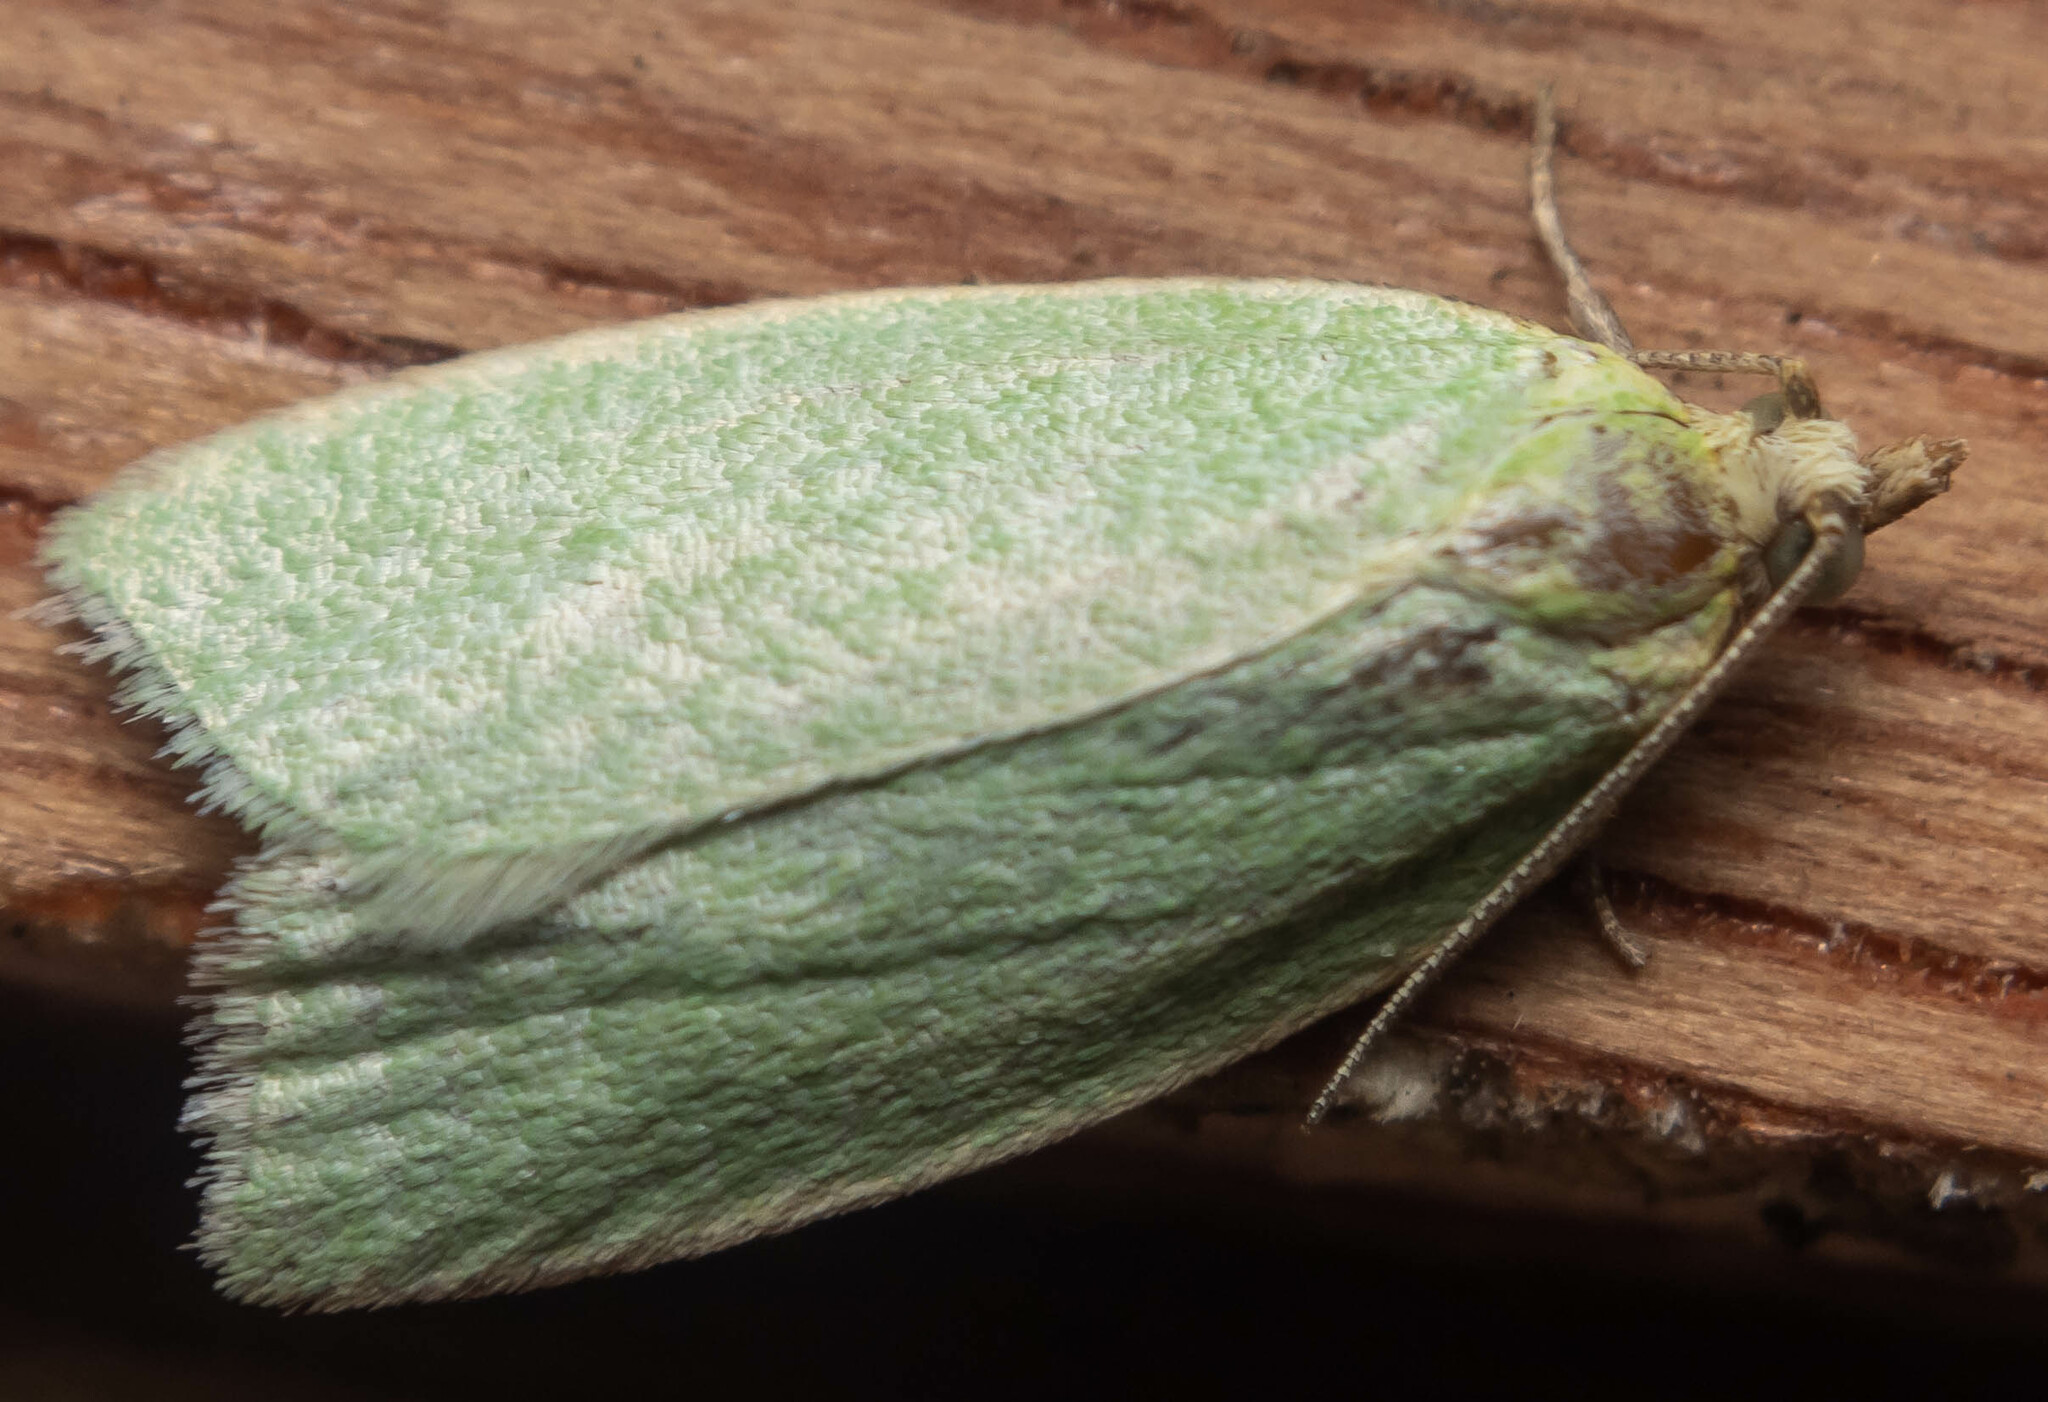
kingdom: Animalia
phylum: Arthropoda
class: Insecta
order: Lepidoptera
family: Tortricidae
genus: Tortrix
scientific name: Tortrix viridana
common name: Green oak tortrix
